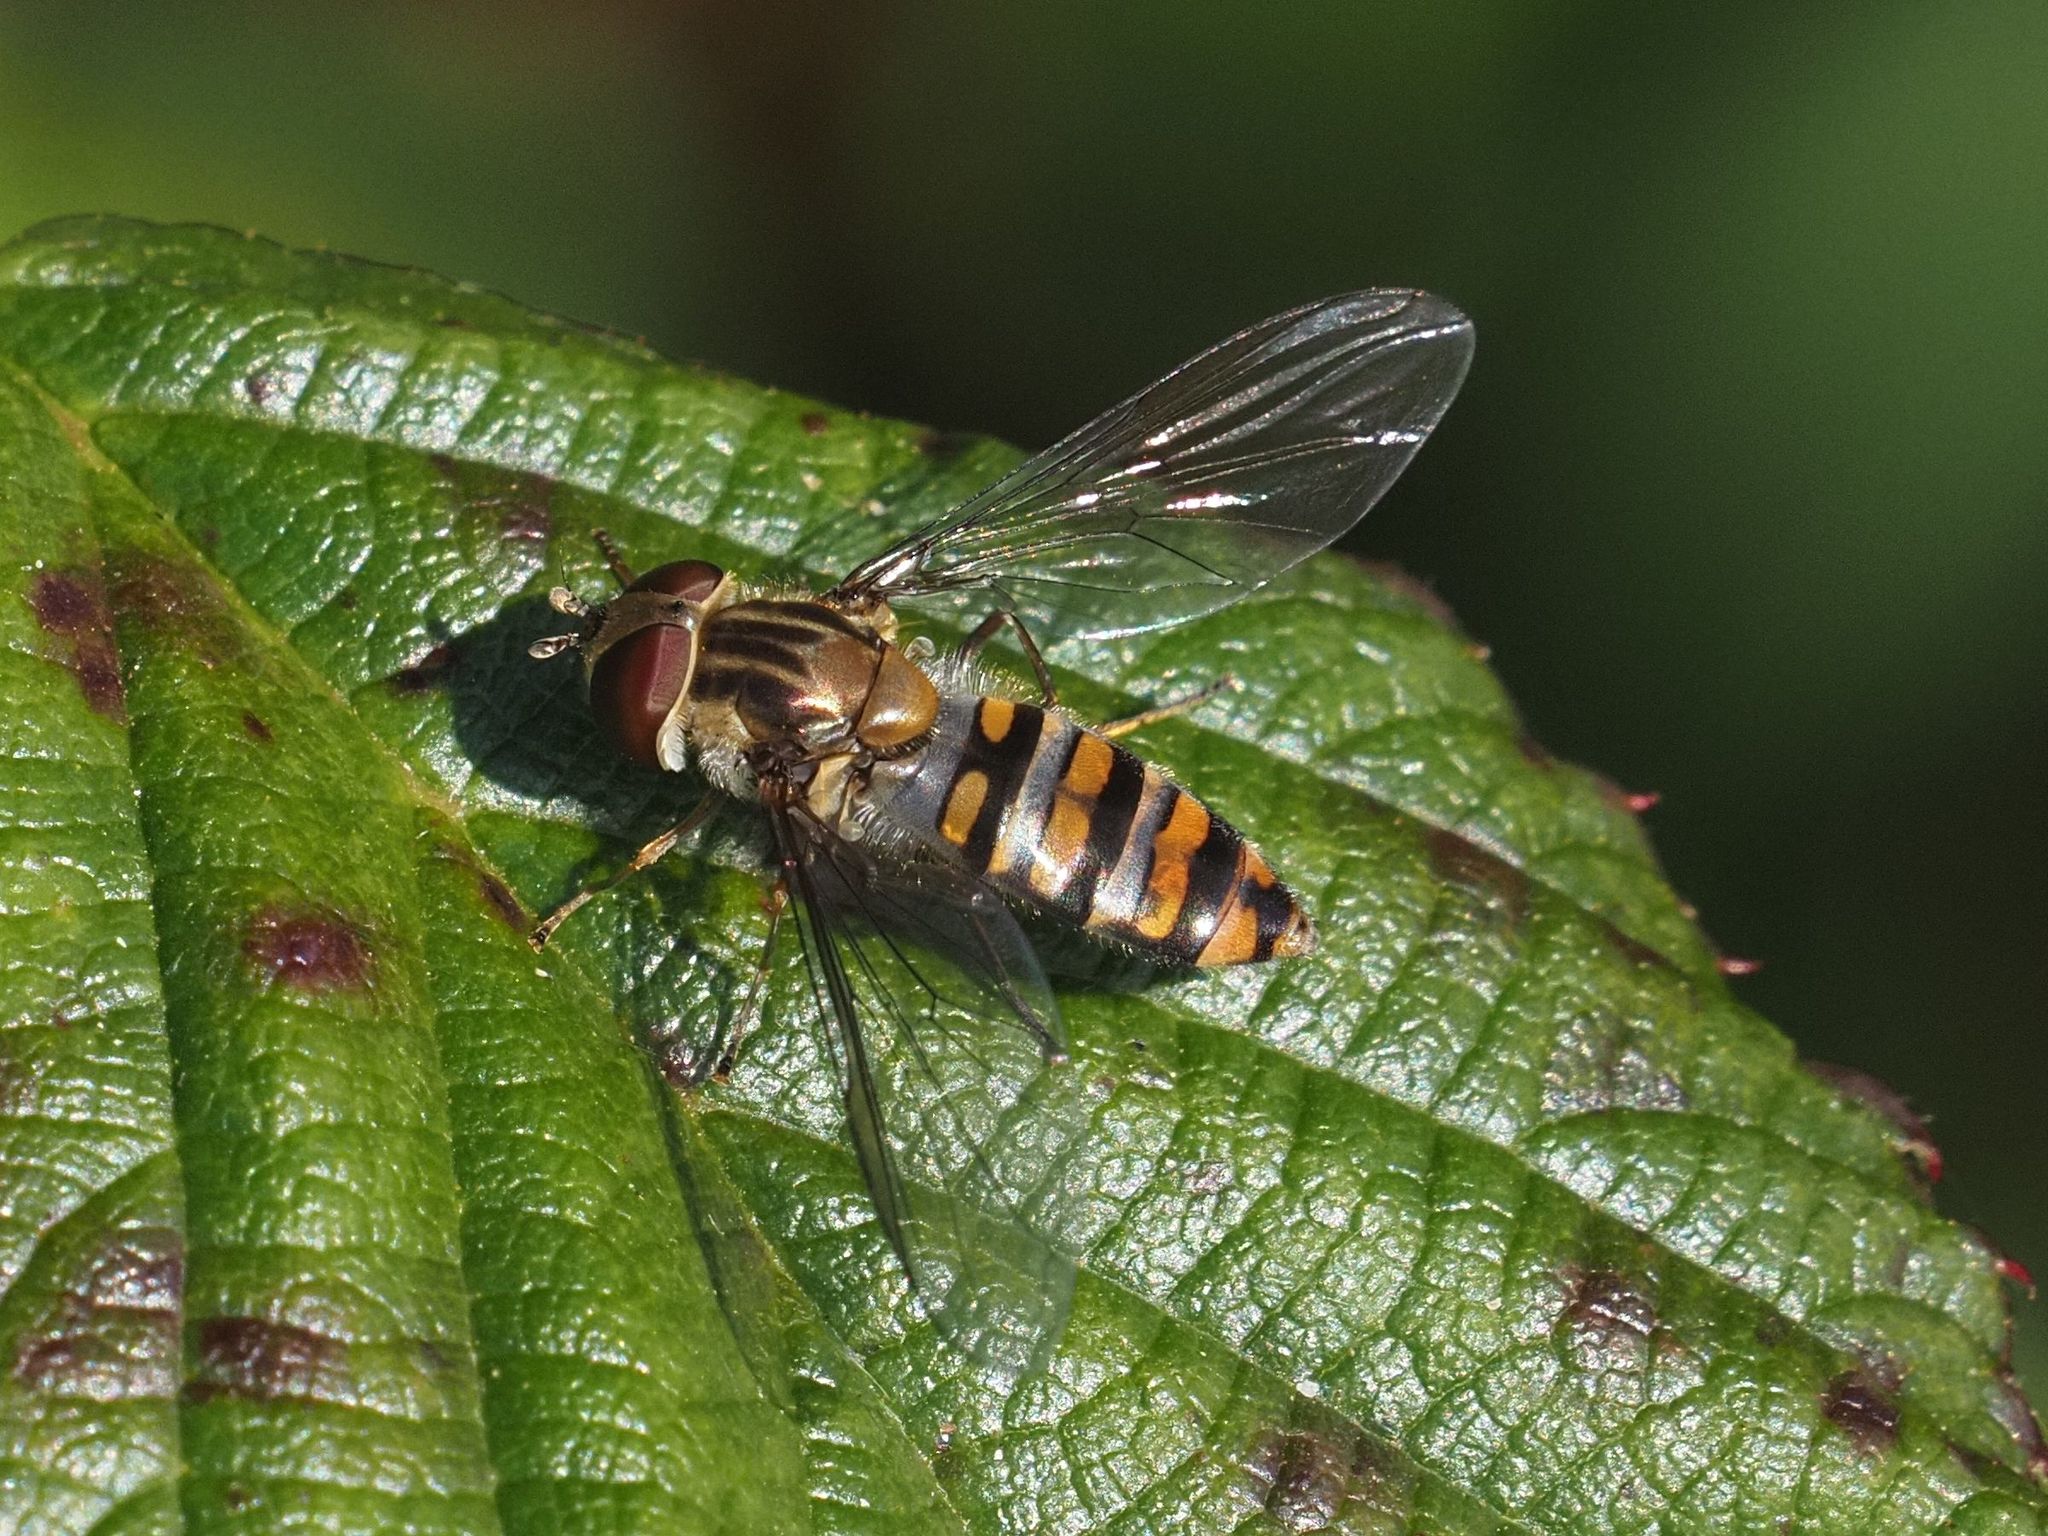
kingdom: Animalia
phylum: Arthropoda
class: Insecta
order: Diptera
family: Syrphidae
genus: Episyrphus
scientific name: Episyrphus balteatus
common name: Marmalade hoverfly
